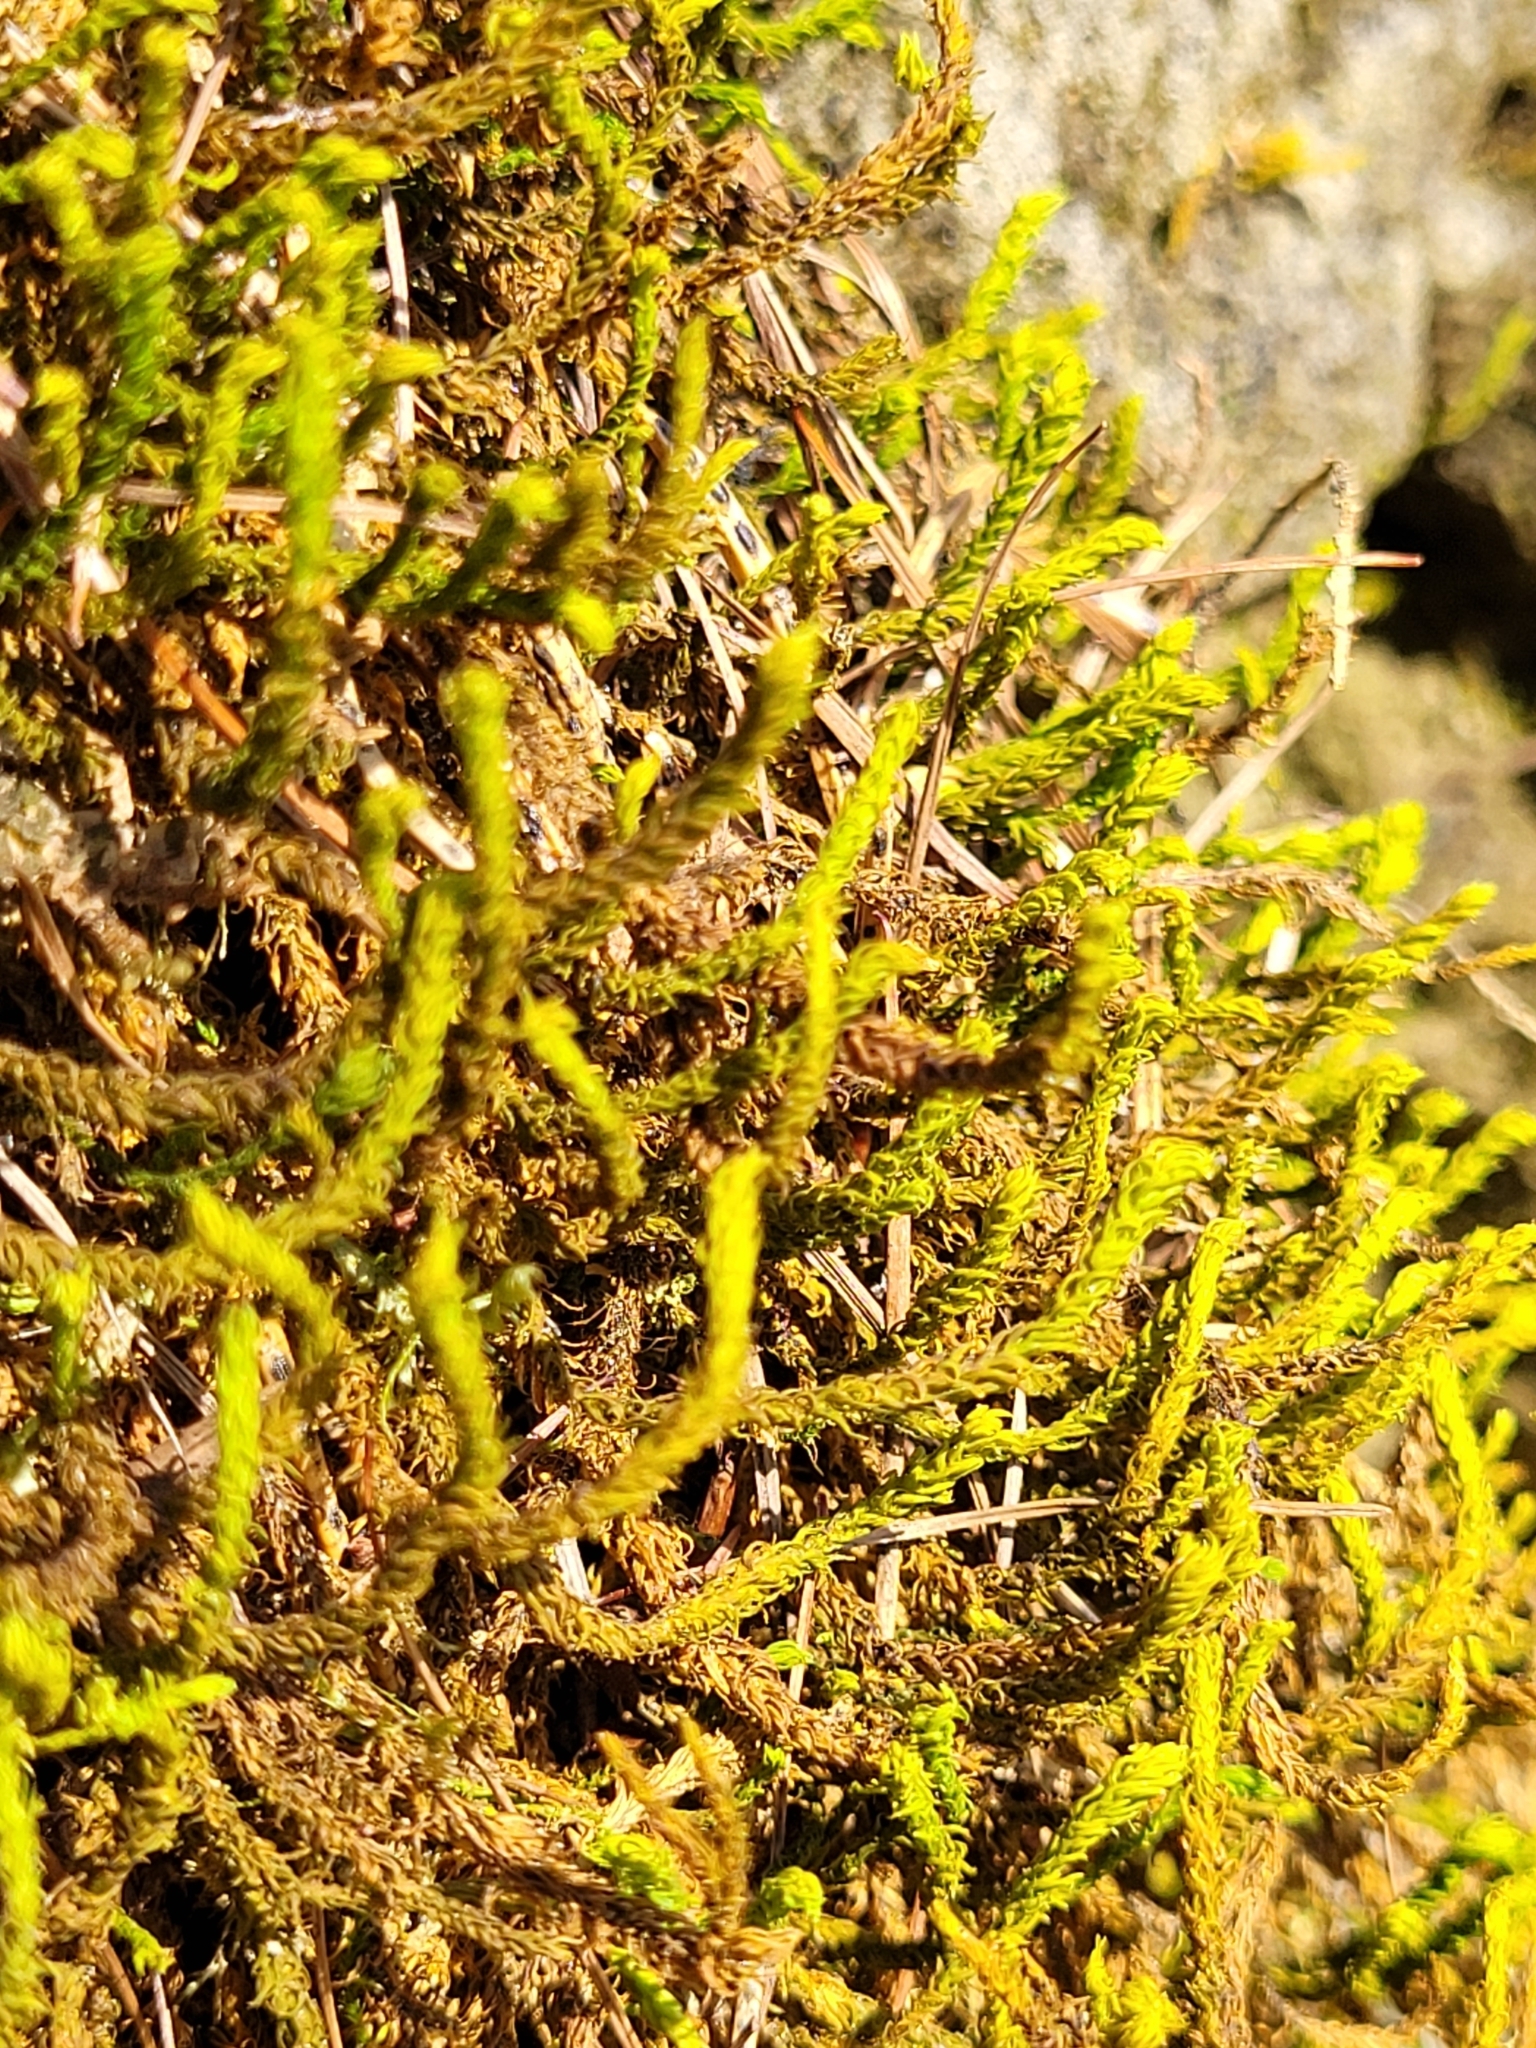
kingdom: Plantae
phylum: Bryophyta
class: Bryopsida
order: Hypnales
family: Anomodontaceae
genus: Anomodon
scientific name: Anomodon viticulosus
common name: Tall anomodon
